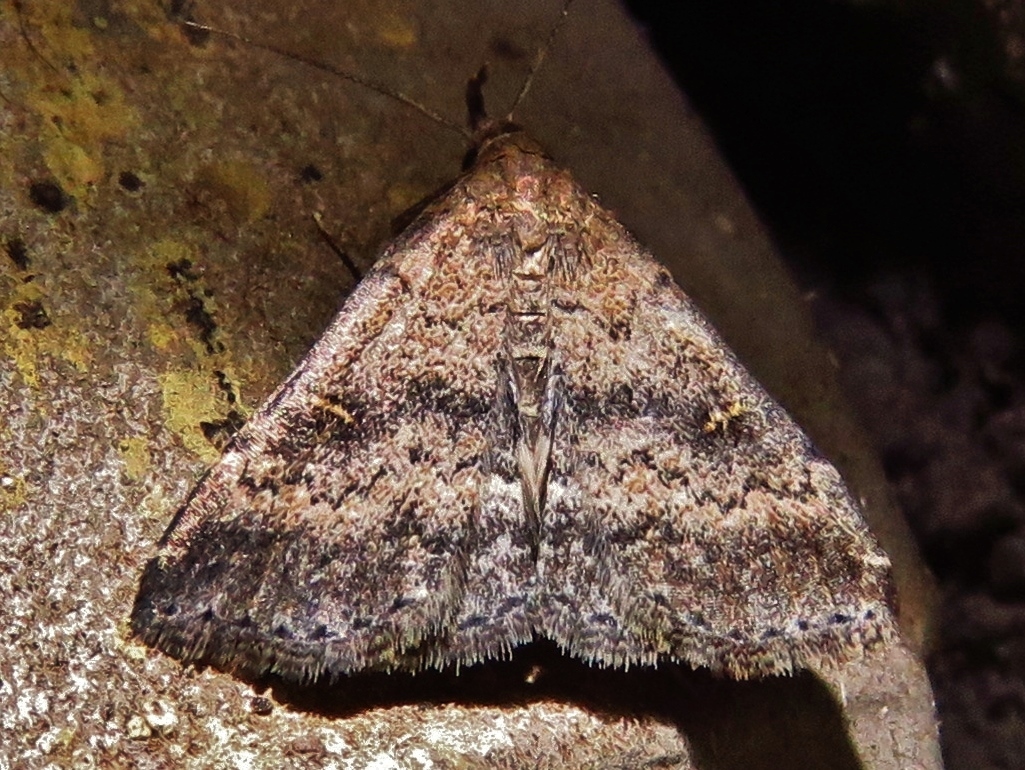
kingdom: Animalia
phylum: Arthropoda
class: Insecta
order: Lepidoptera
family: Erebidae
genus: Tetanolita
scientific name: Tetanolita floridana
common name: Florida tetanolita moth
